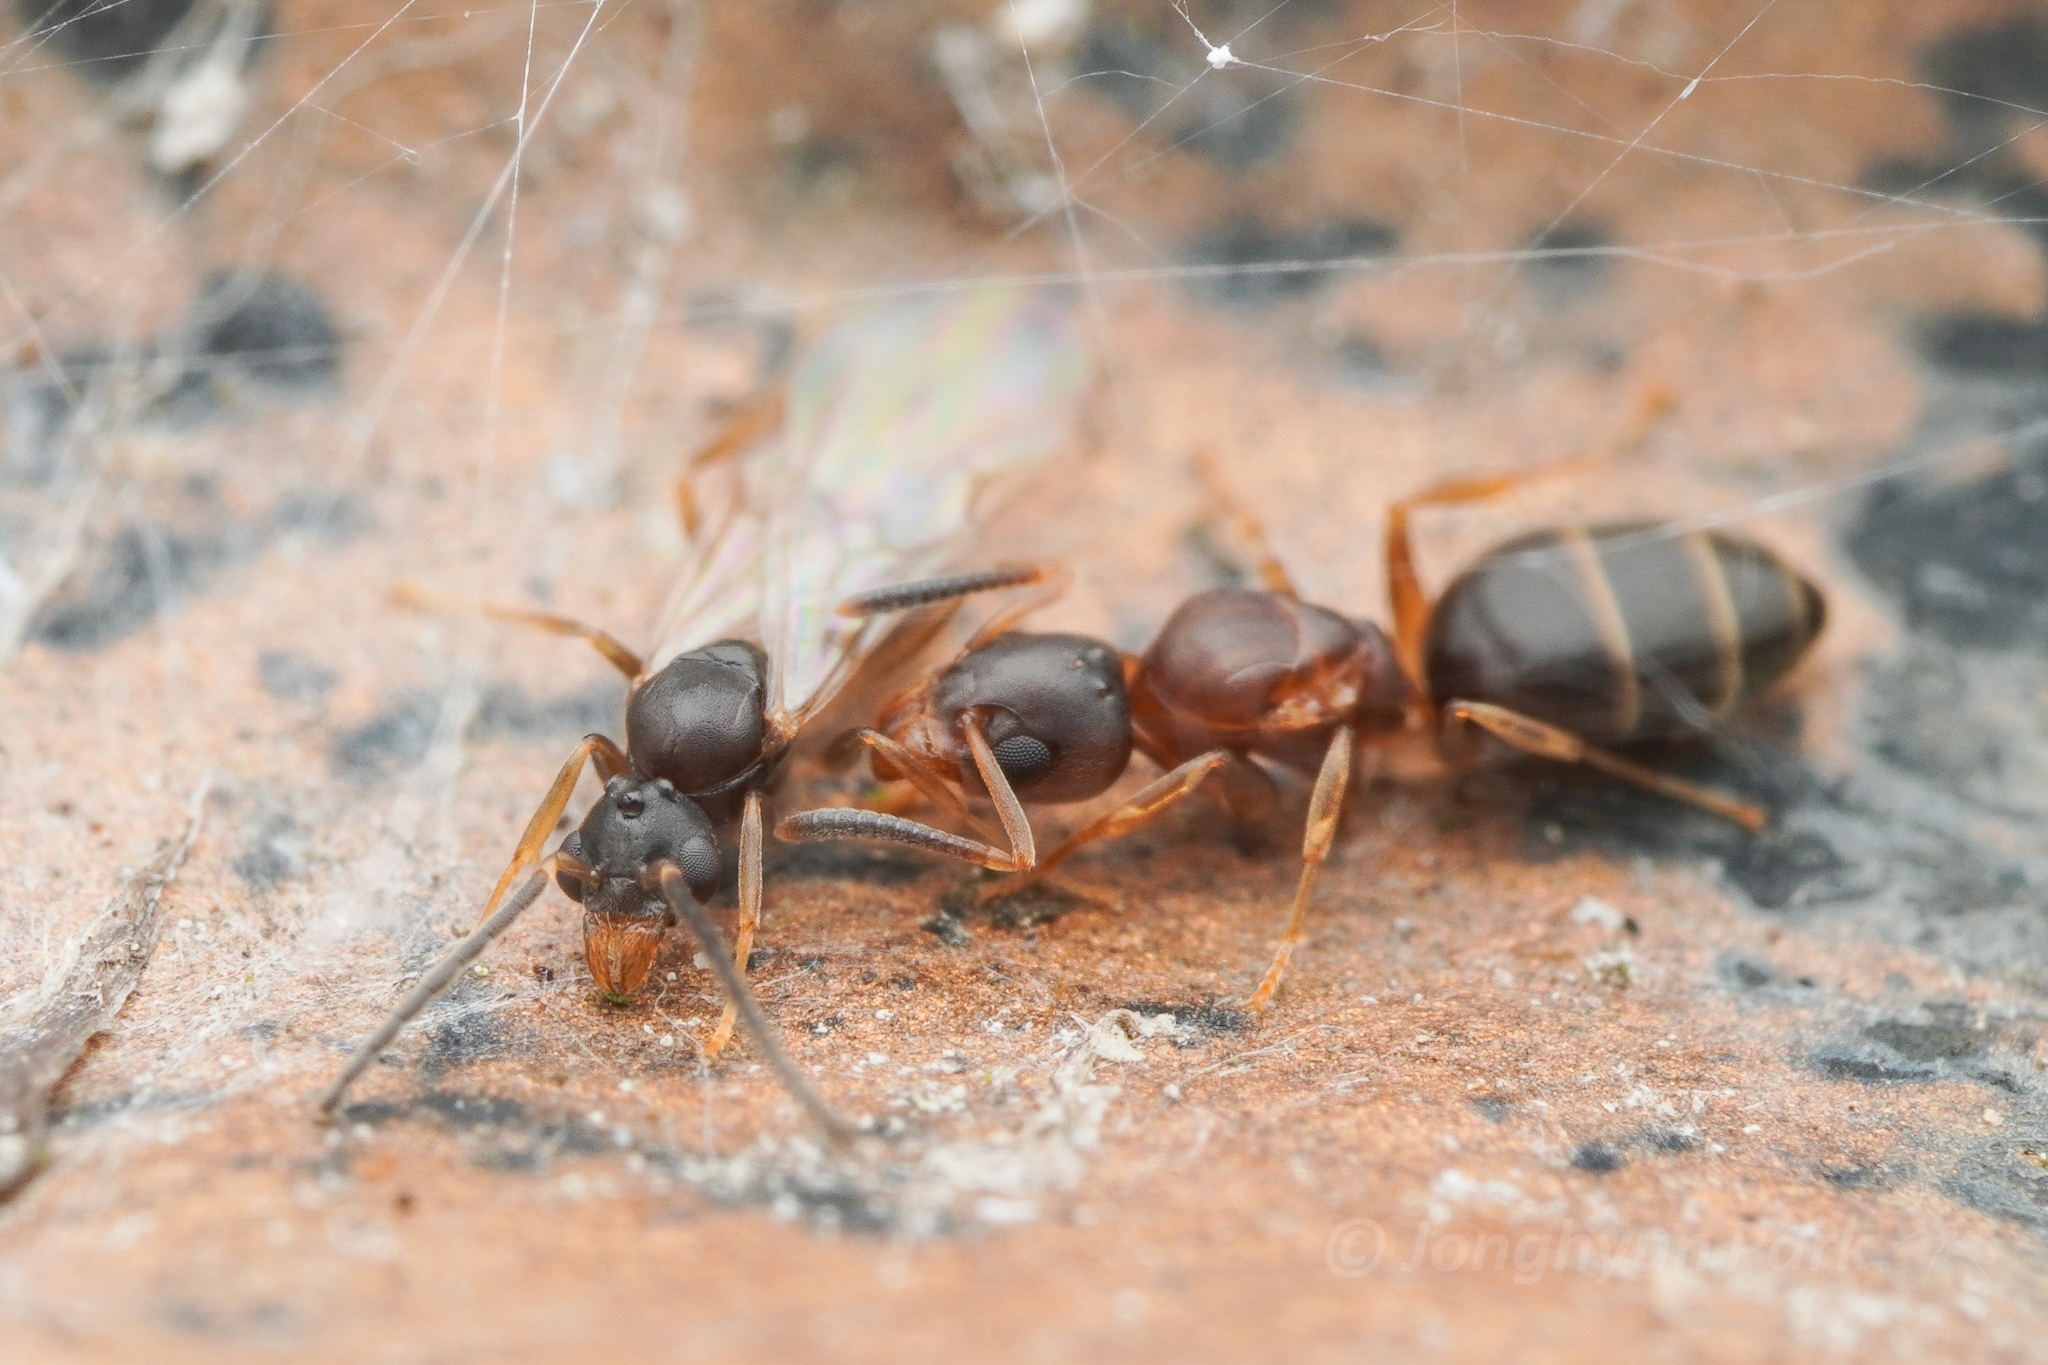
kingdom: Animalia
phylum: Arthropoda
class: Insecta
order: Hymenoptera
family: Formicidae
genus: Technomyrmex
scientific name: Technomyrmex gibbosus
